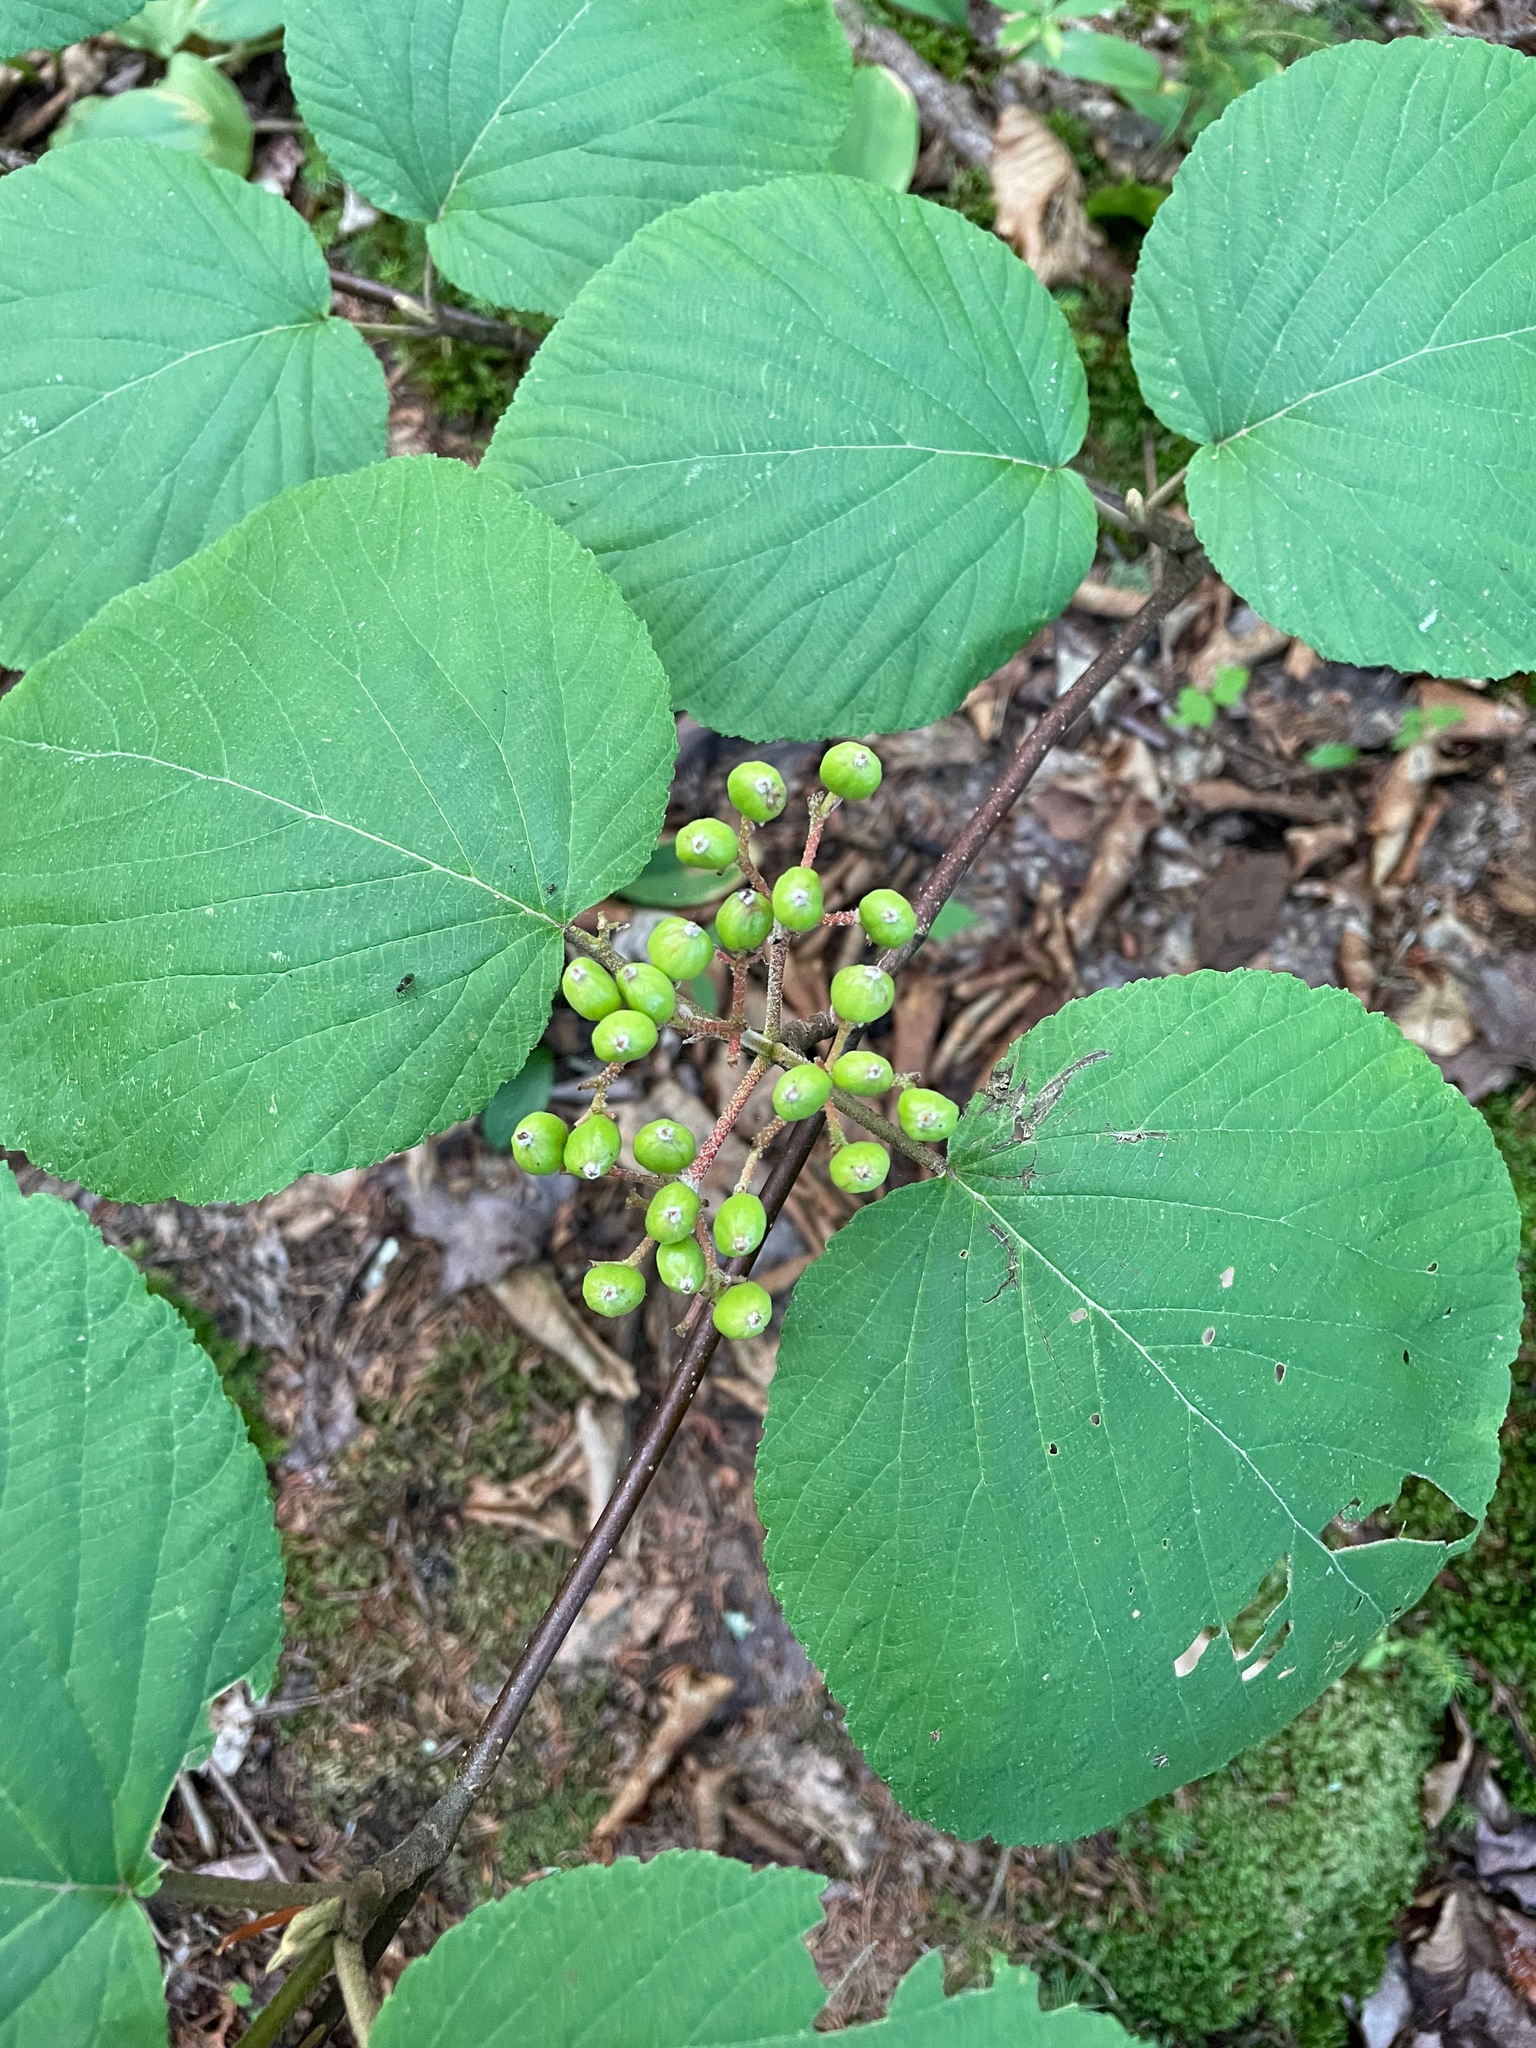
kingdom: Plantae
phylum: Tracheophyta
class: Magnoliopsida
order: Dipsacales
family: Viburnaceae
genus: Viburnum
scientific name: Viburnum lantanoides
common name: Hobblebush
